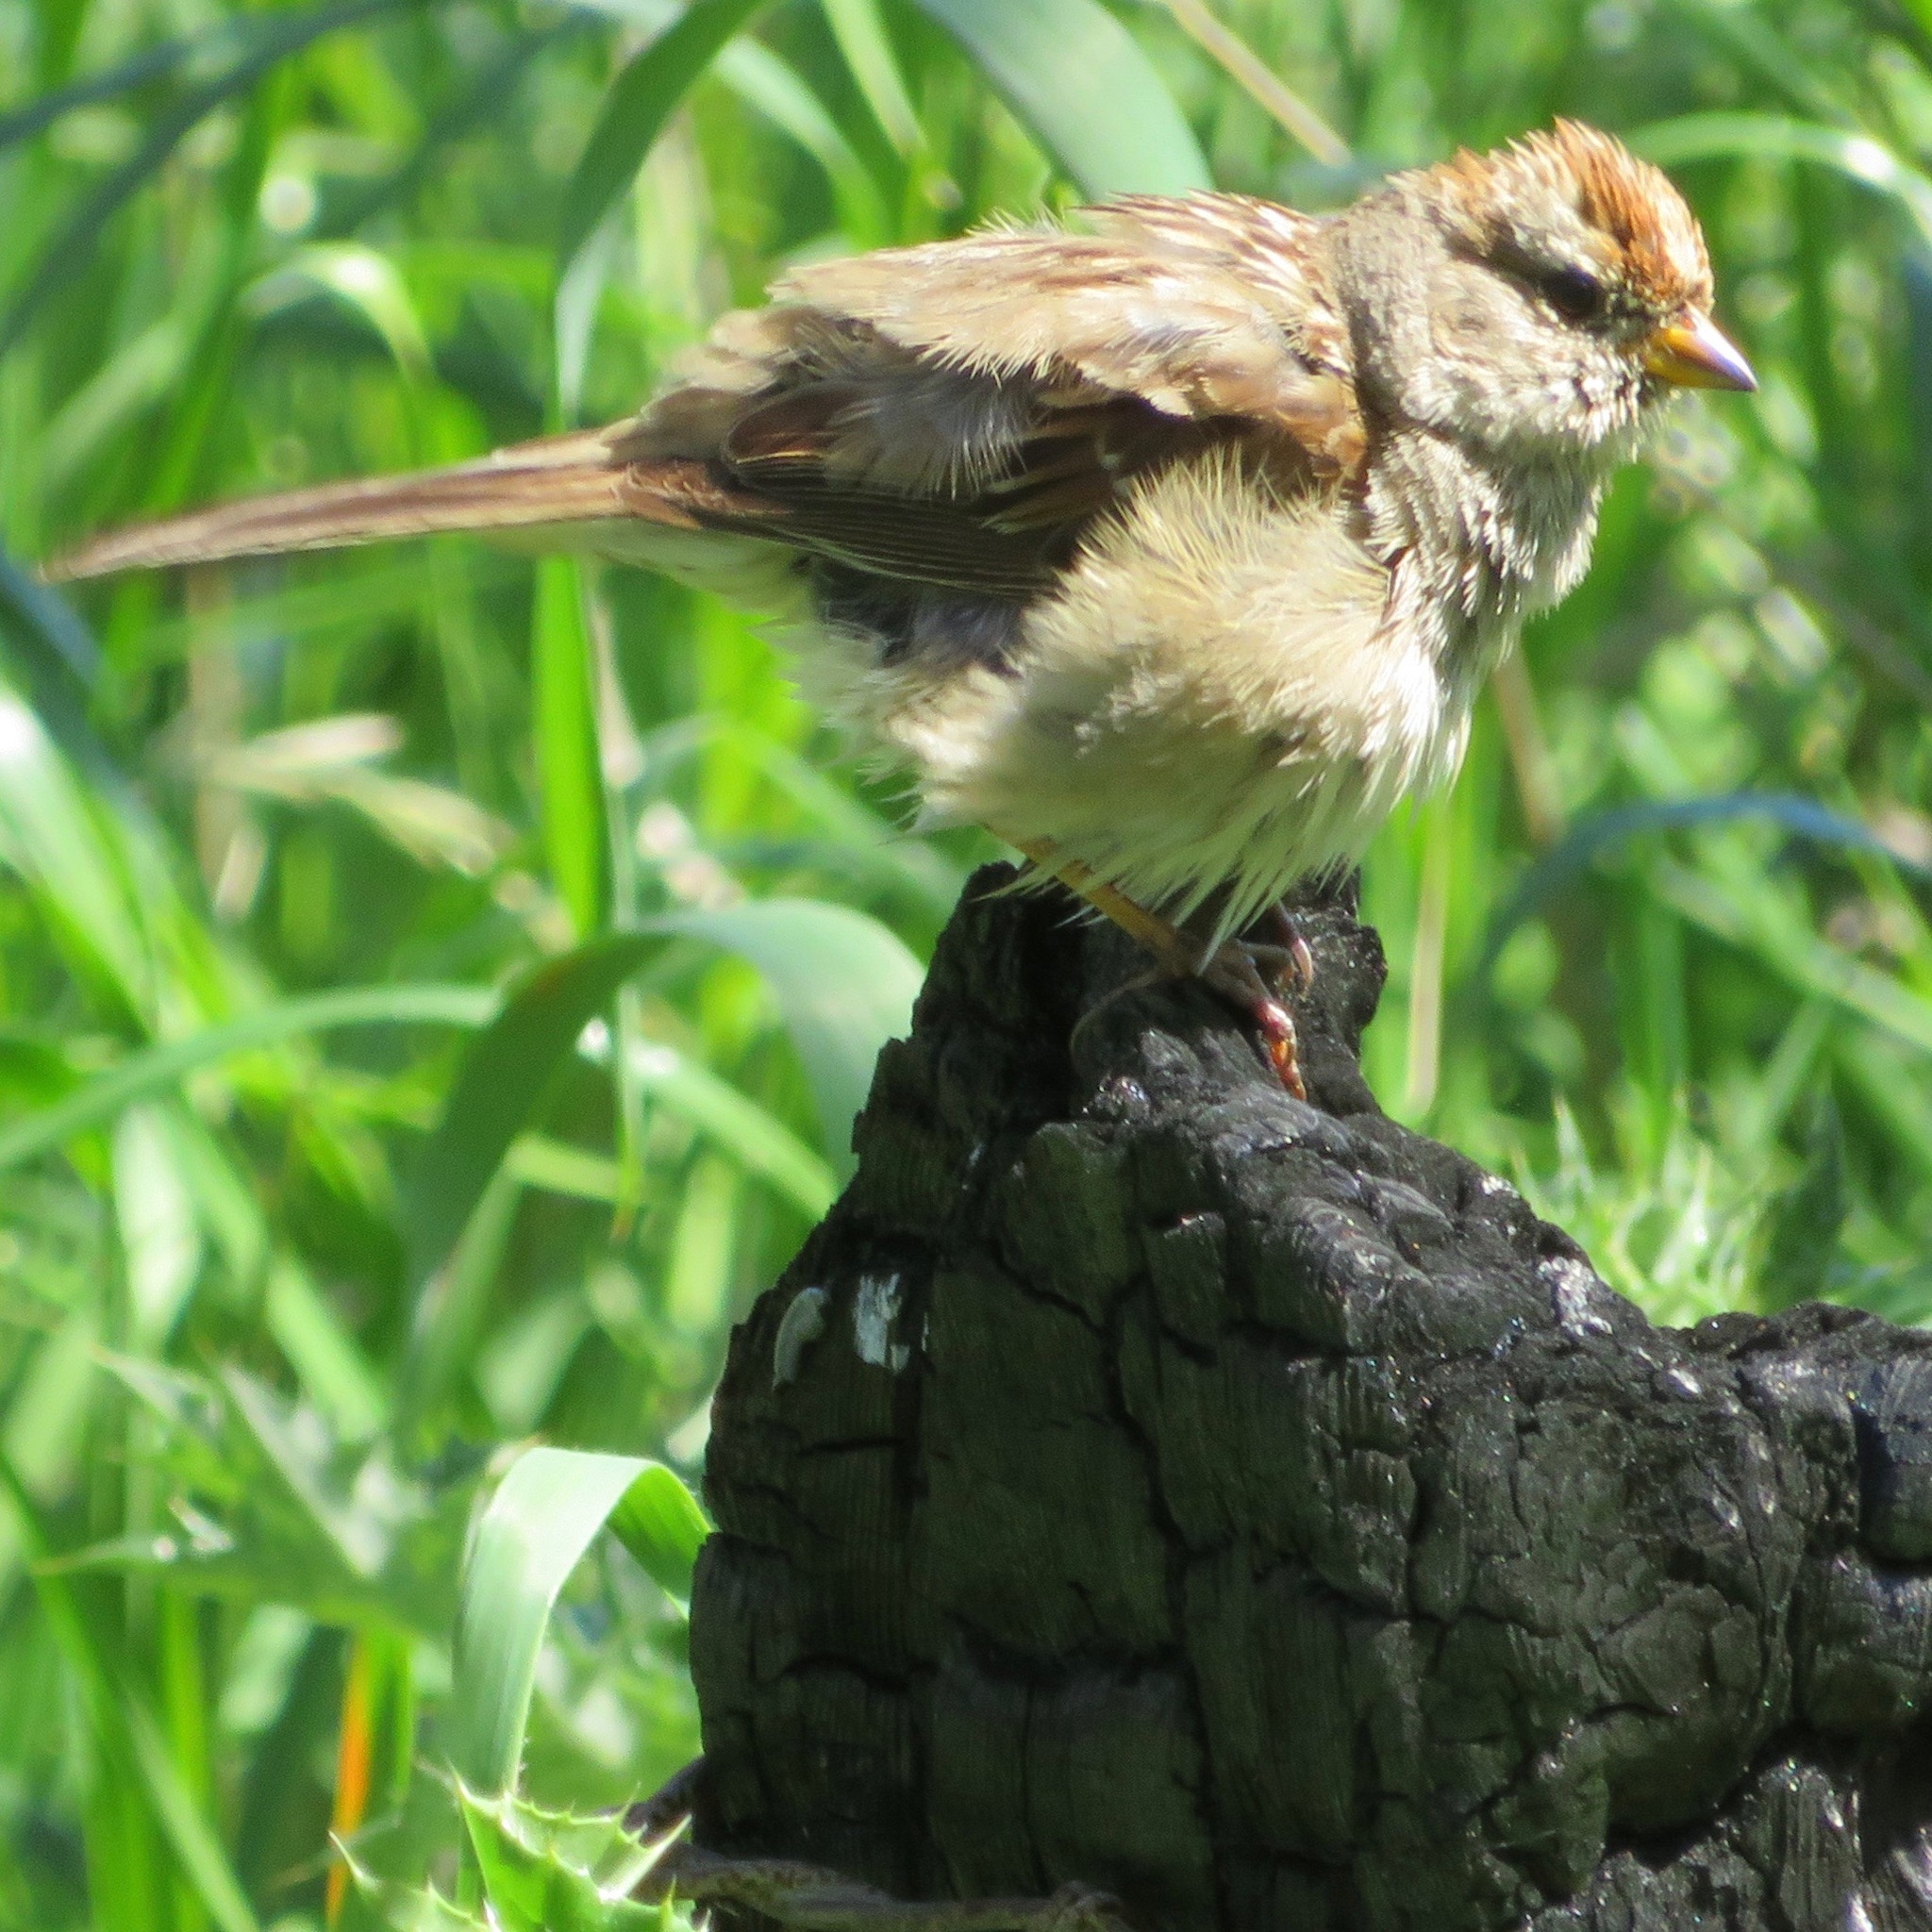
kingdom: Animalia
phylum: Chordata
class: Aves
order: Passeriformes
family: Passerellidae
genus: Zonotrichia
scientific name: Zonotrichia leucophrys
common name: White-crowned sparrow
